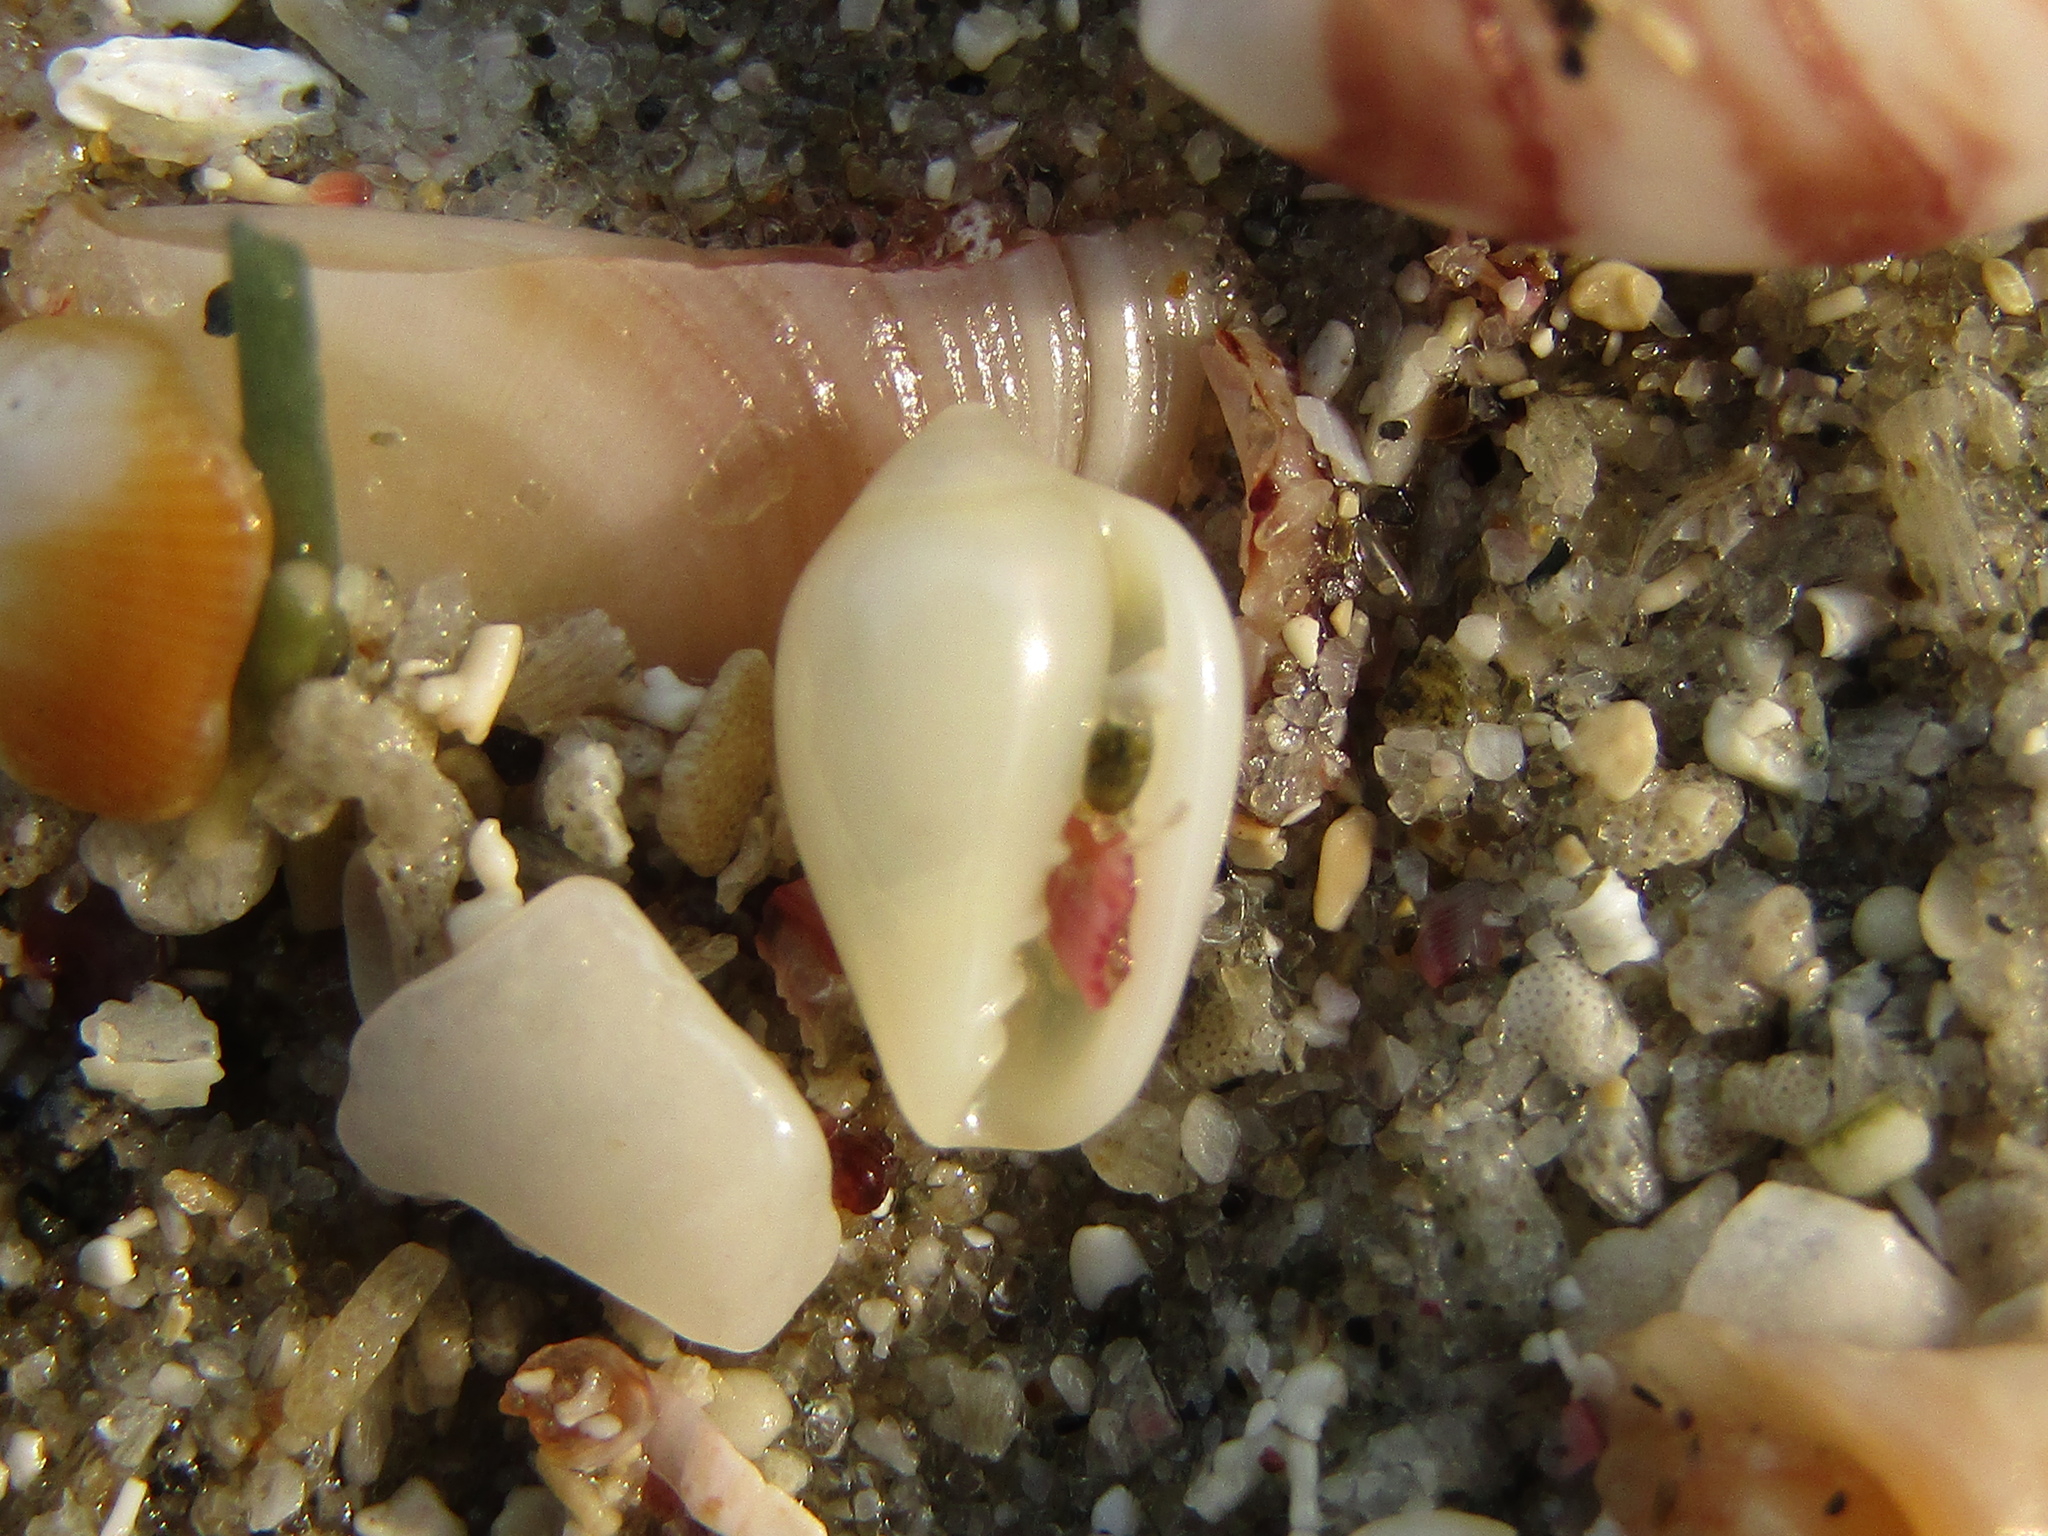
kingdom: Animalia
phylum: Mollusca
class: Gastropoda
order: Neogastropoda
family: Marginellidae
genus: Mesoginella
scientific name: Mesoginella koma
